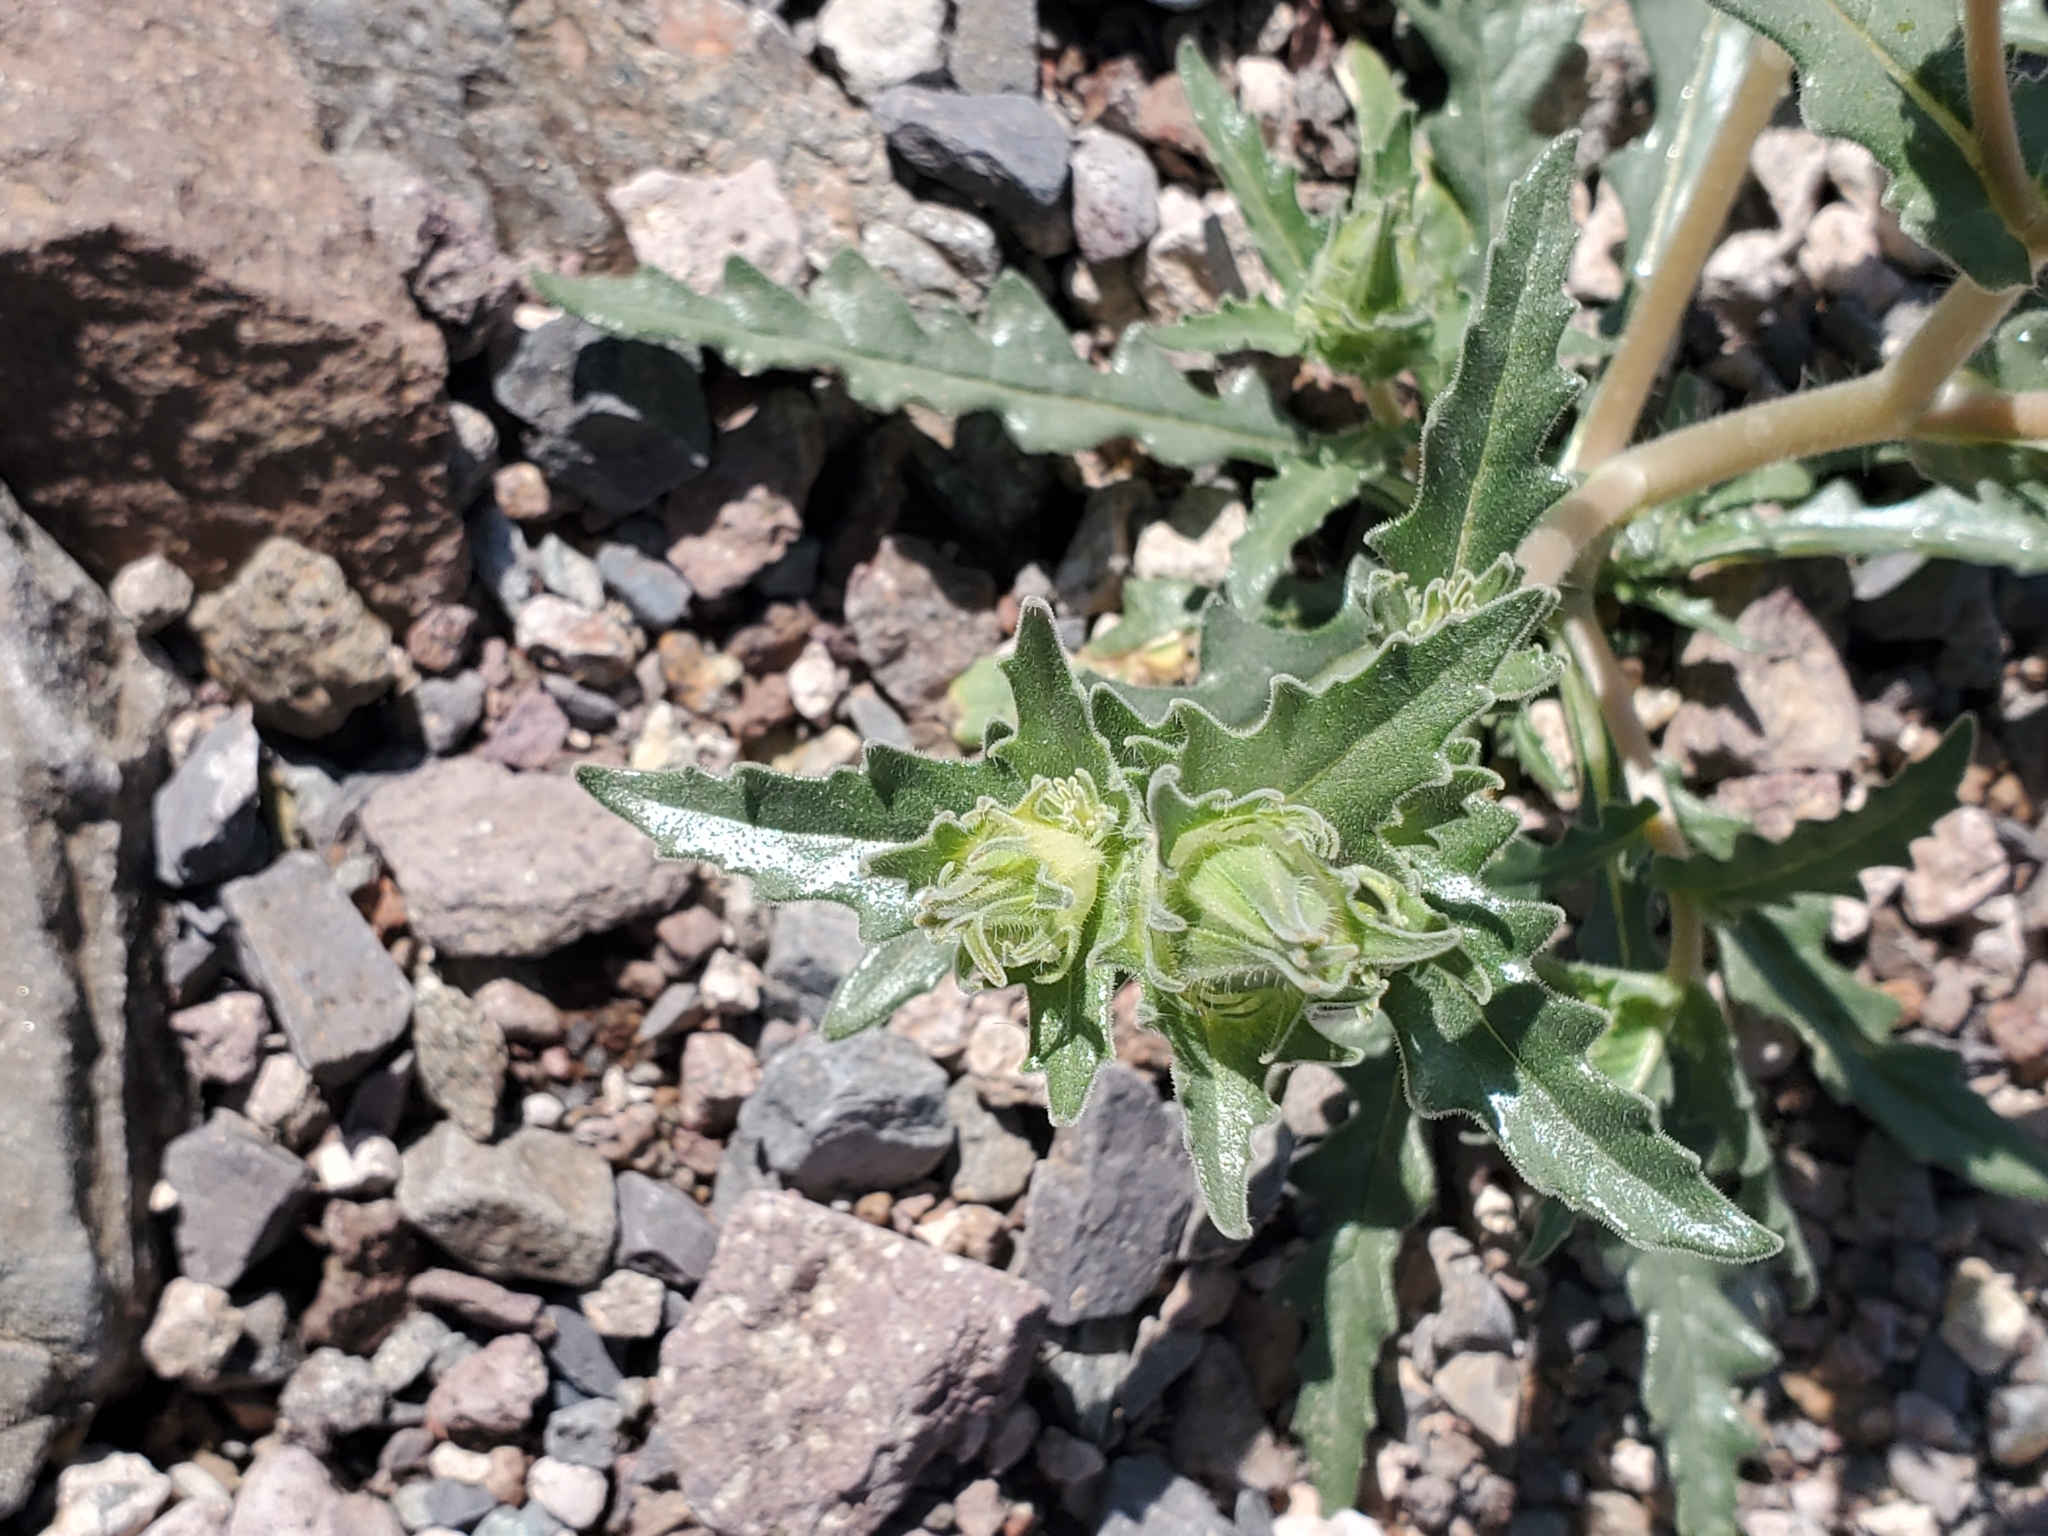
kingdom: Plantae
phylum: Tracheophyta
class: Magnoliopsida
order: Cornales
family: Loasaceae
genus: Mentzelia
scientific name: Mentzelia involucrata
